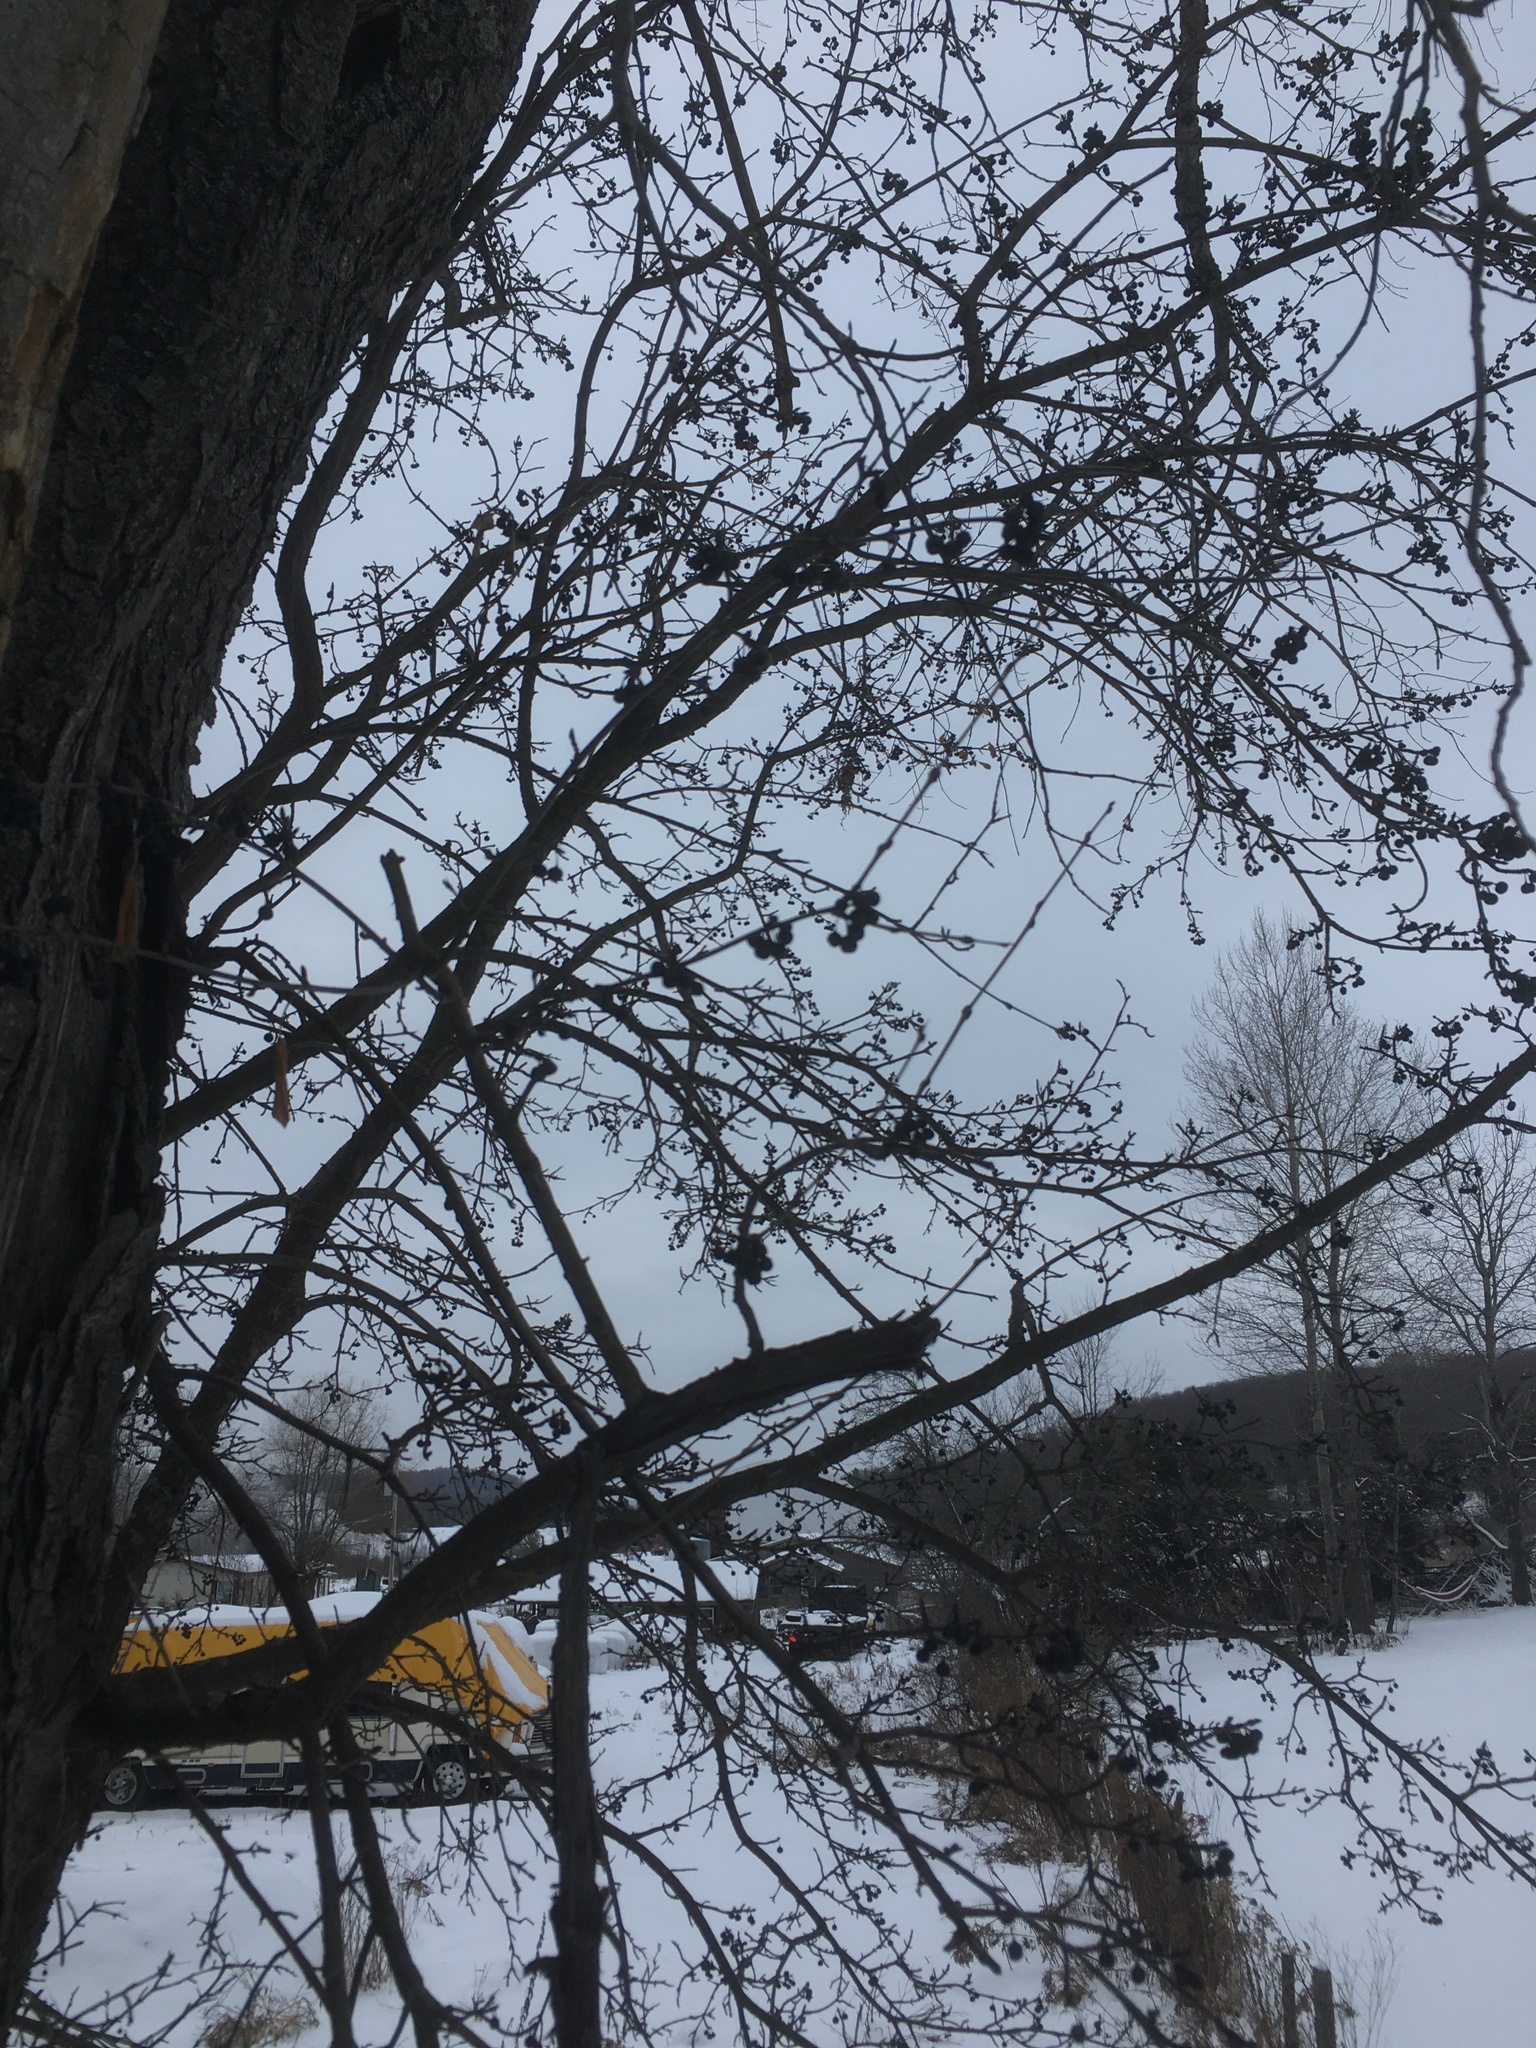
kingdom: Plantae
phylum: Tracheophyta
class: Magnoliopsida
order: Rosales
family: Rhamnaceae
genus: Rhamnus
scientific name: Rhamnus cathartica
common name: Common buckthorn
